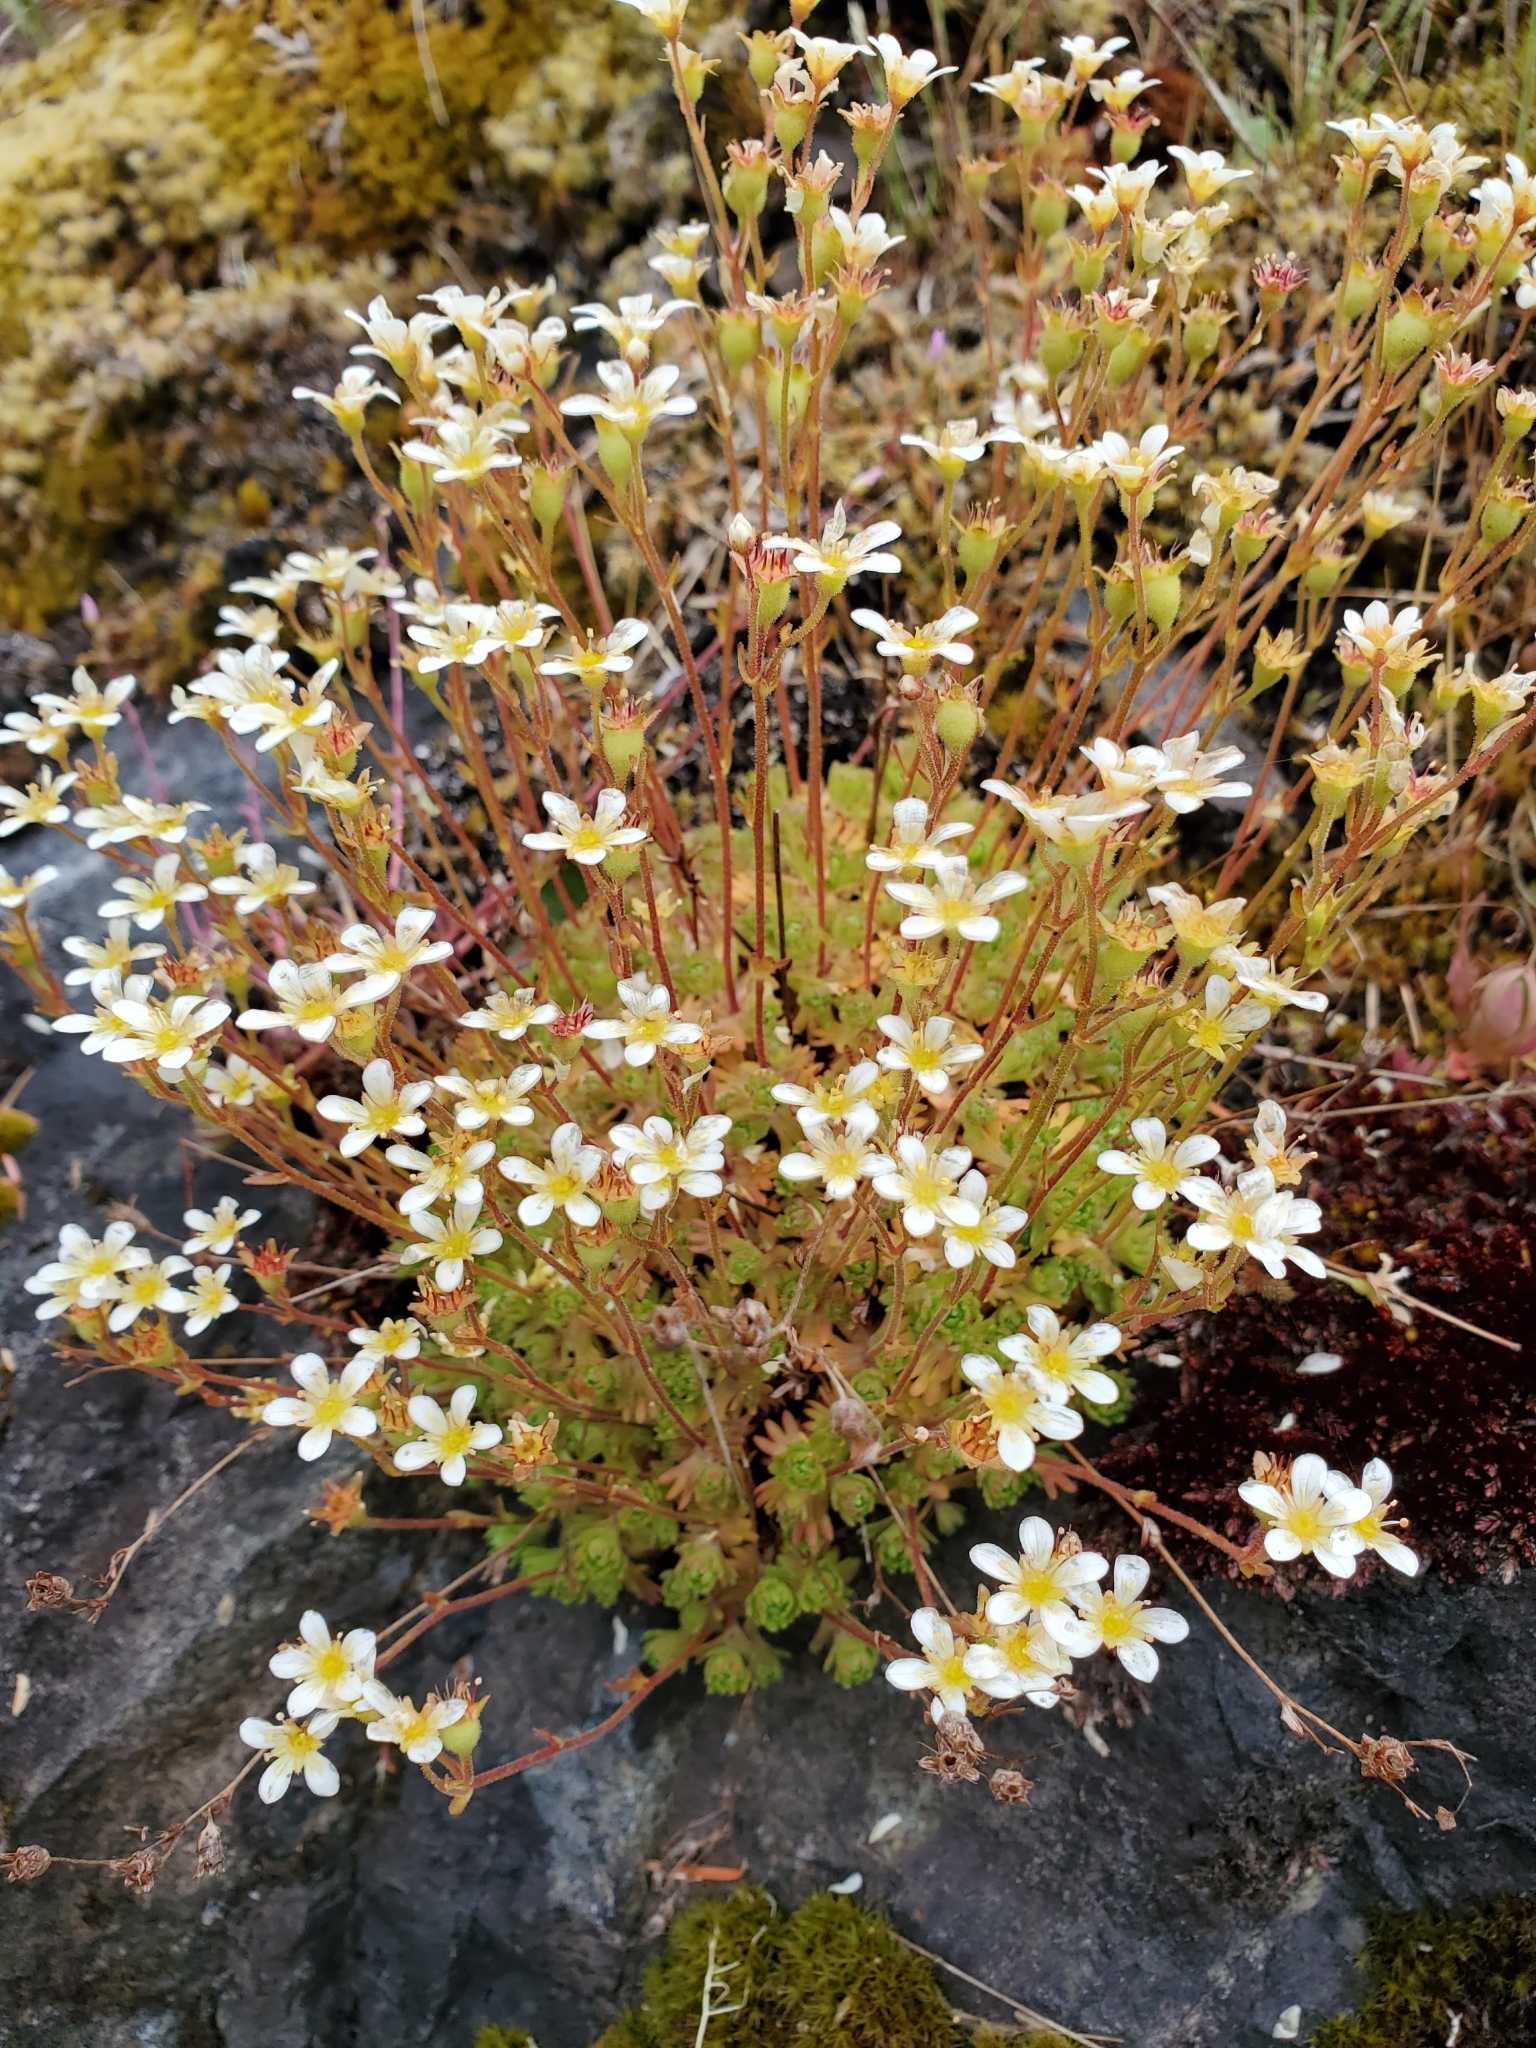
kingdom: Plantae
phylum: Tracheophyta
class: Magnoliopsida
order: Saxifragales
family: Saxifragaceae
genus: Saxifraga
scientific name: Saxifraga cespitosa
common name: Tufted saxifrage
